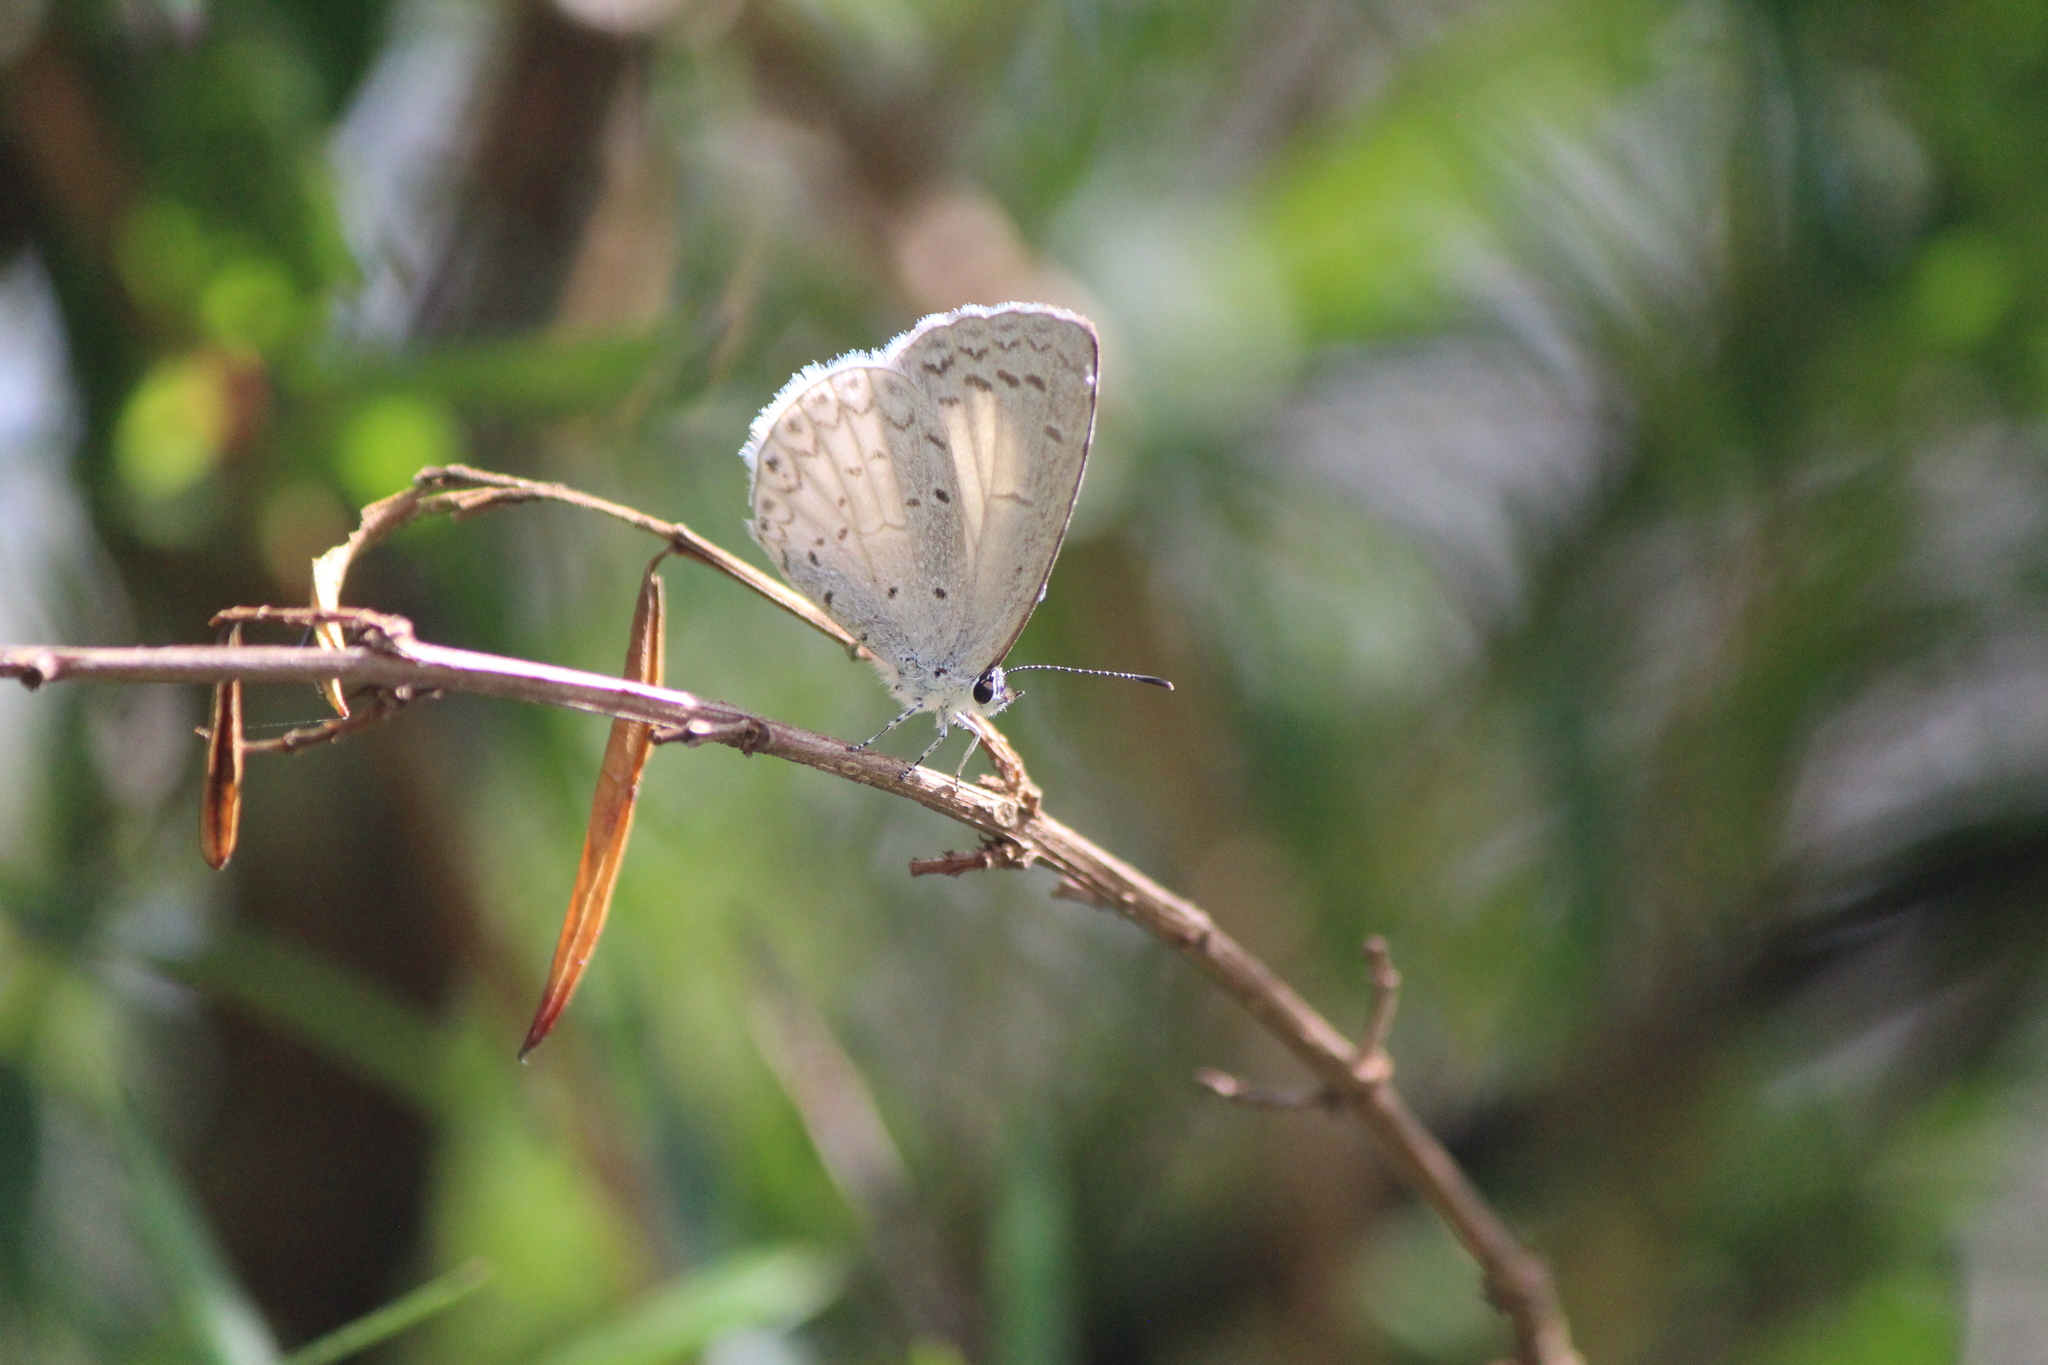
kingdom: Animalia
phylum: Arthropoda
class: Insecta
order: Lepidoptera
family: Lycaenidae
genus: Celastrina
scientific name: Celastrina ladon
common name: Spring azure
